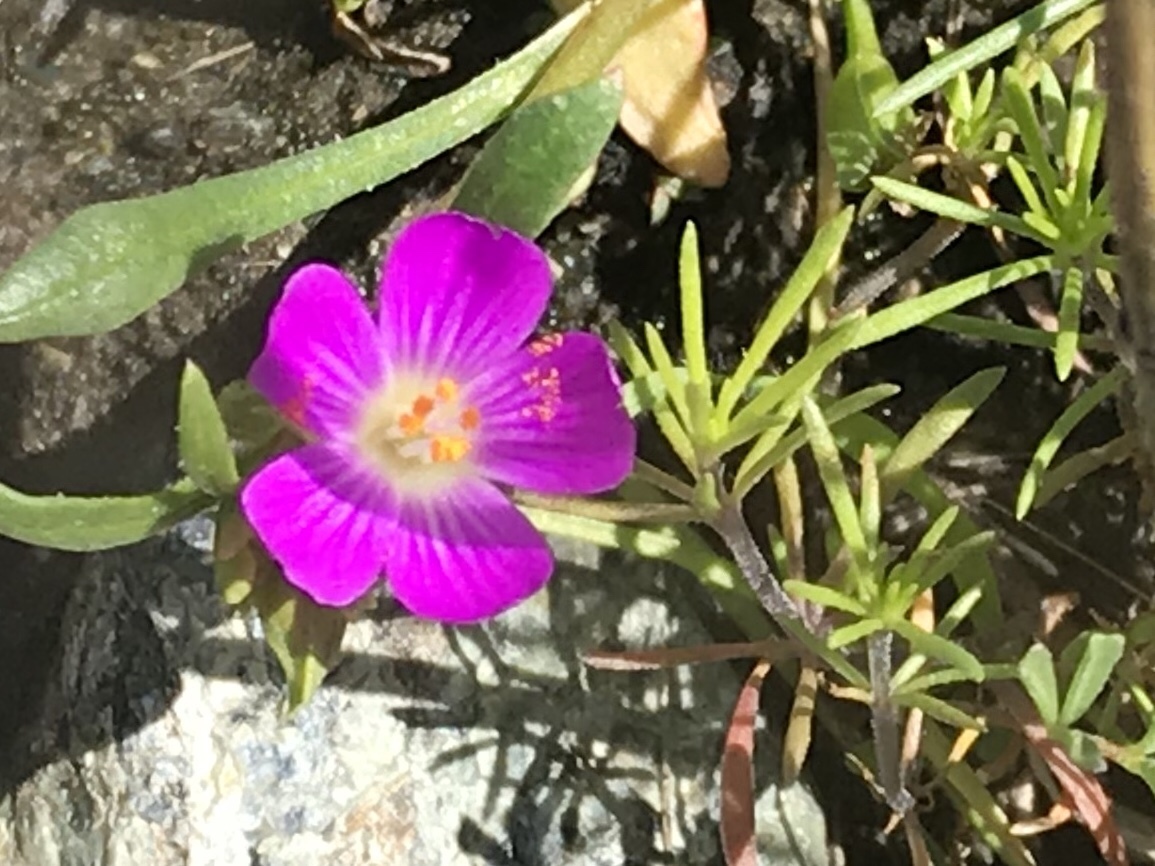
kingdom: Plantae
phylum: Tracheophyta
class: Magnoliopsida
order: Caryophyllales
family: Montiaceae
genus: Calandrinia
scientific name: Calandrinia menziesii
